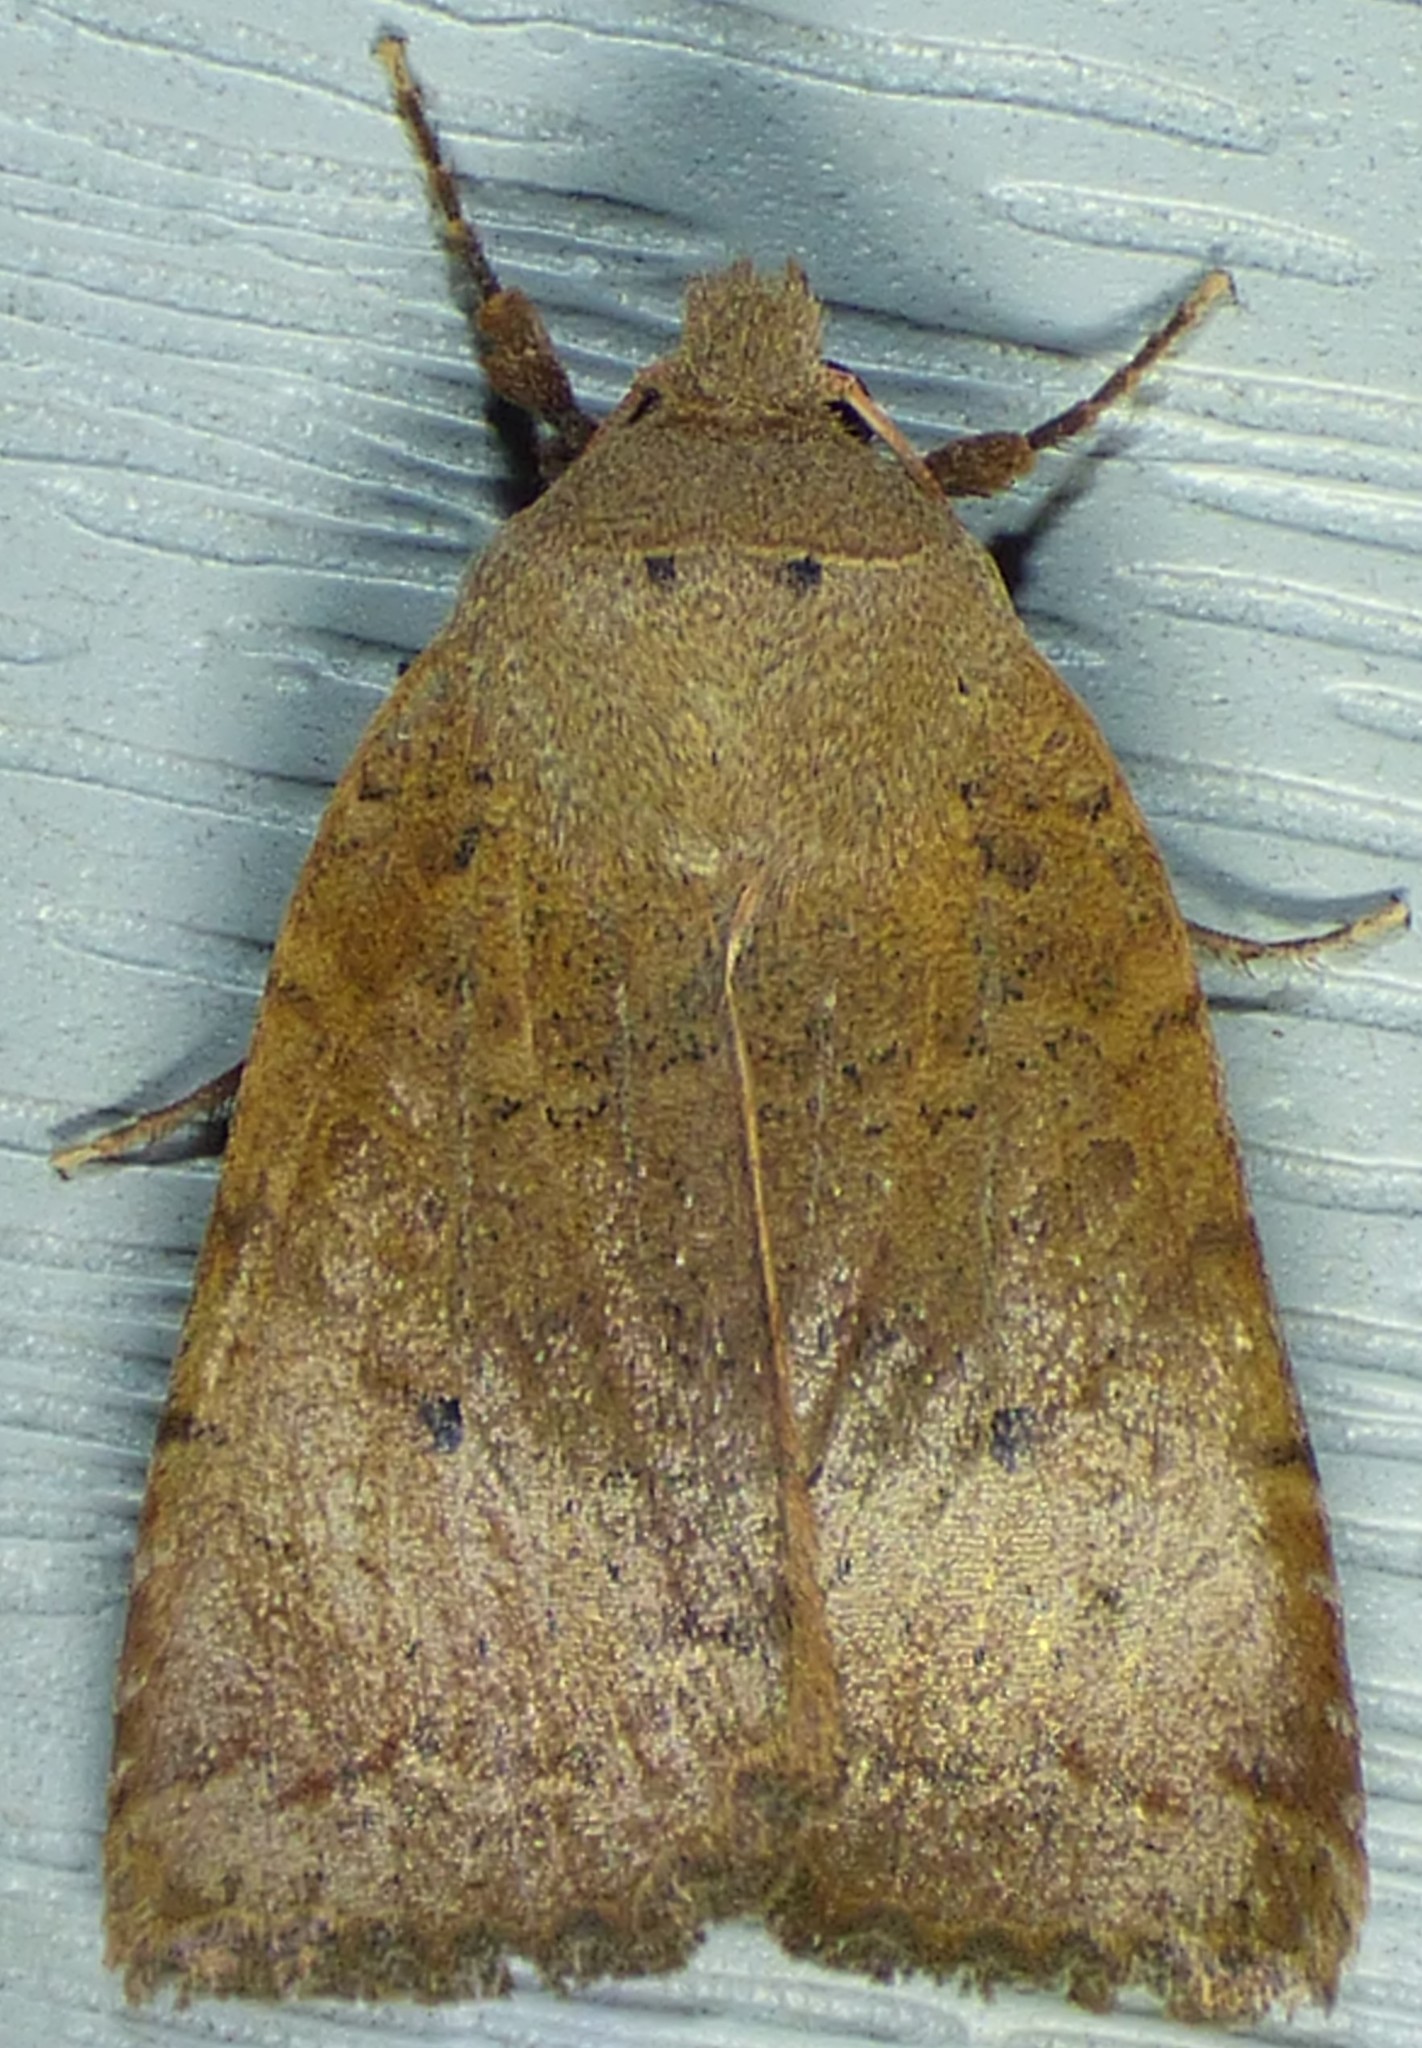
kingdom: Animalia
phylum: Arthropoda
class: Insecta
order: Lepidoptera
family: Noctuidae
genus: Sericaglaea
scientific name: Sericaglaea signata
